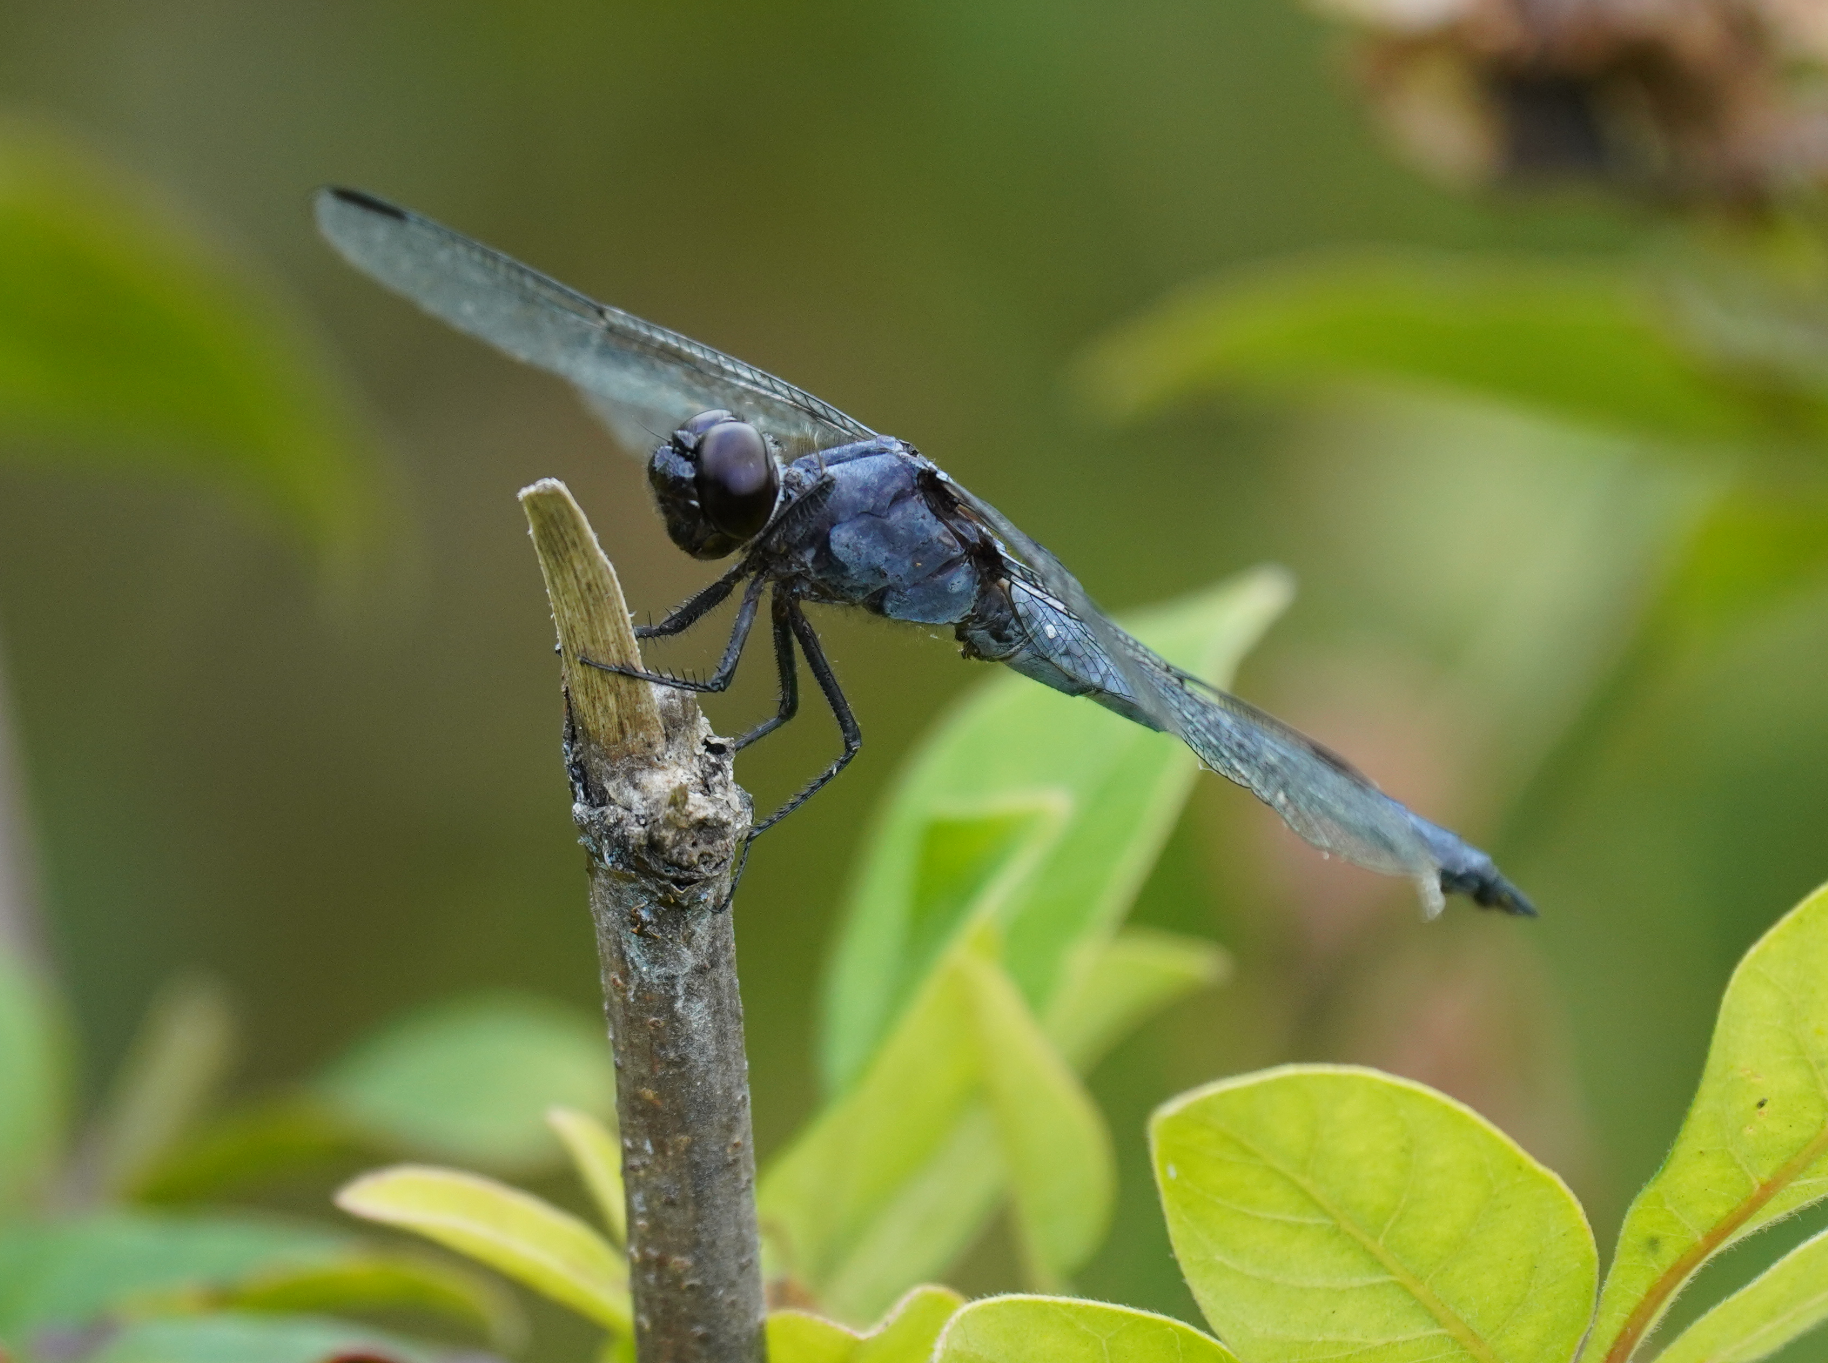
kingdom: Animalia
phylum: Arthropoda
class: Insecta
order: Odonata
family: Libellulidae
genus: Libellula
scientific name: Libellula incesta
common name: Slaty skimmer
